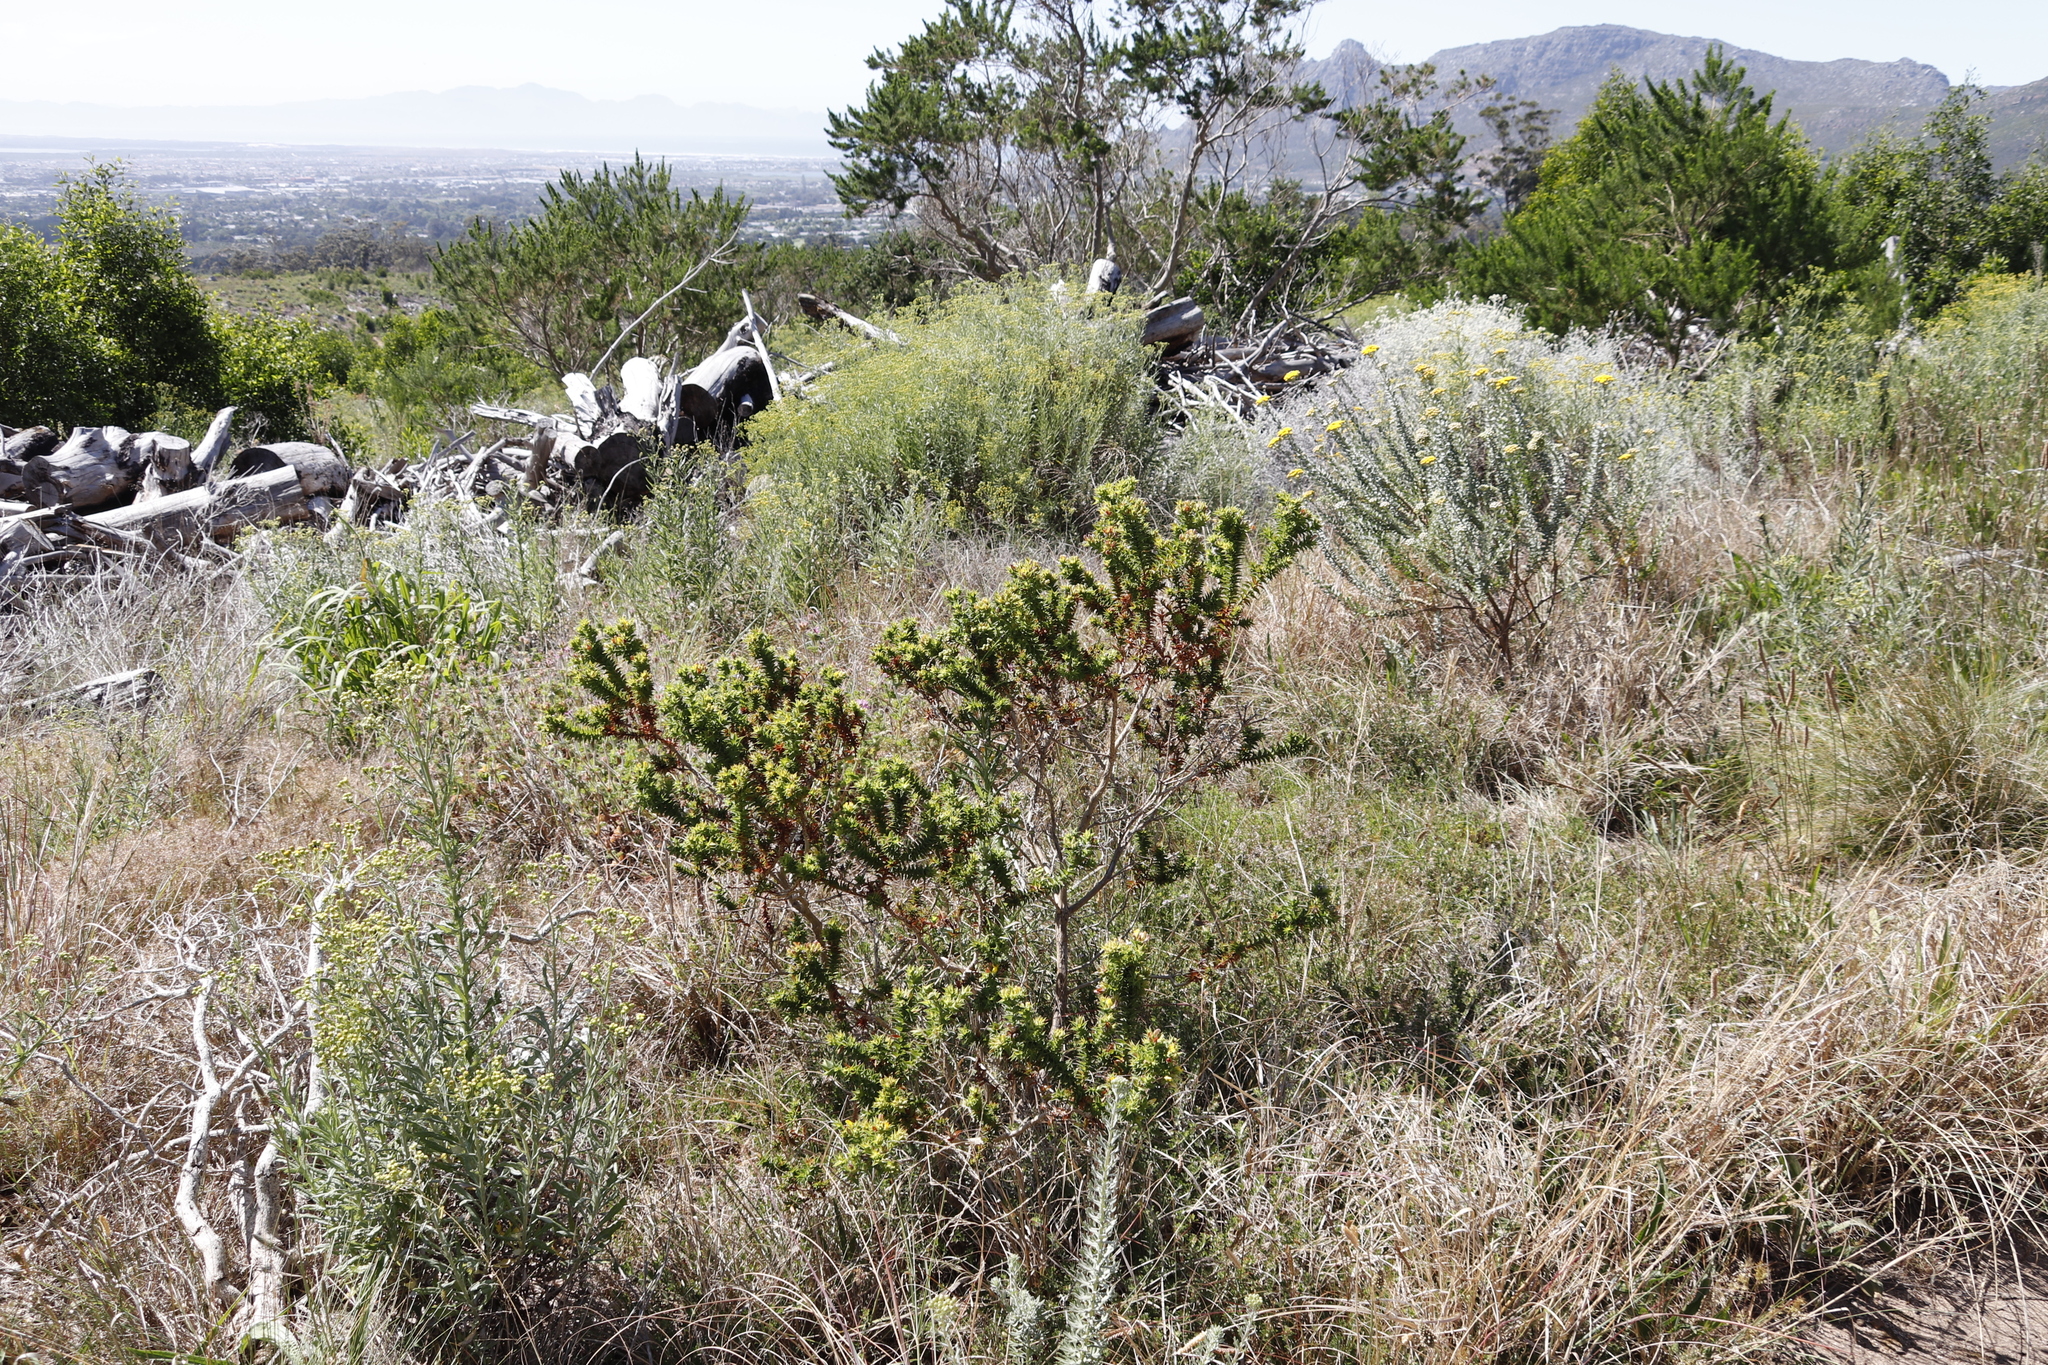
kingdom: Plantae
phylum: Tracheophyta
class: Magnoliopsida
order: Fabales
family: Fabaceae
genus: Aspalathus
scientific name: Aspalathus cordata
